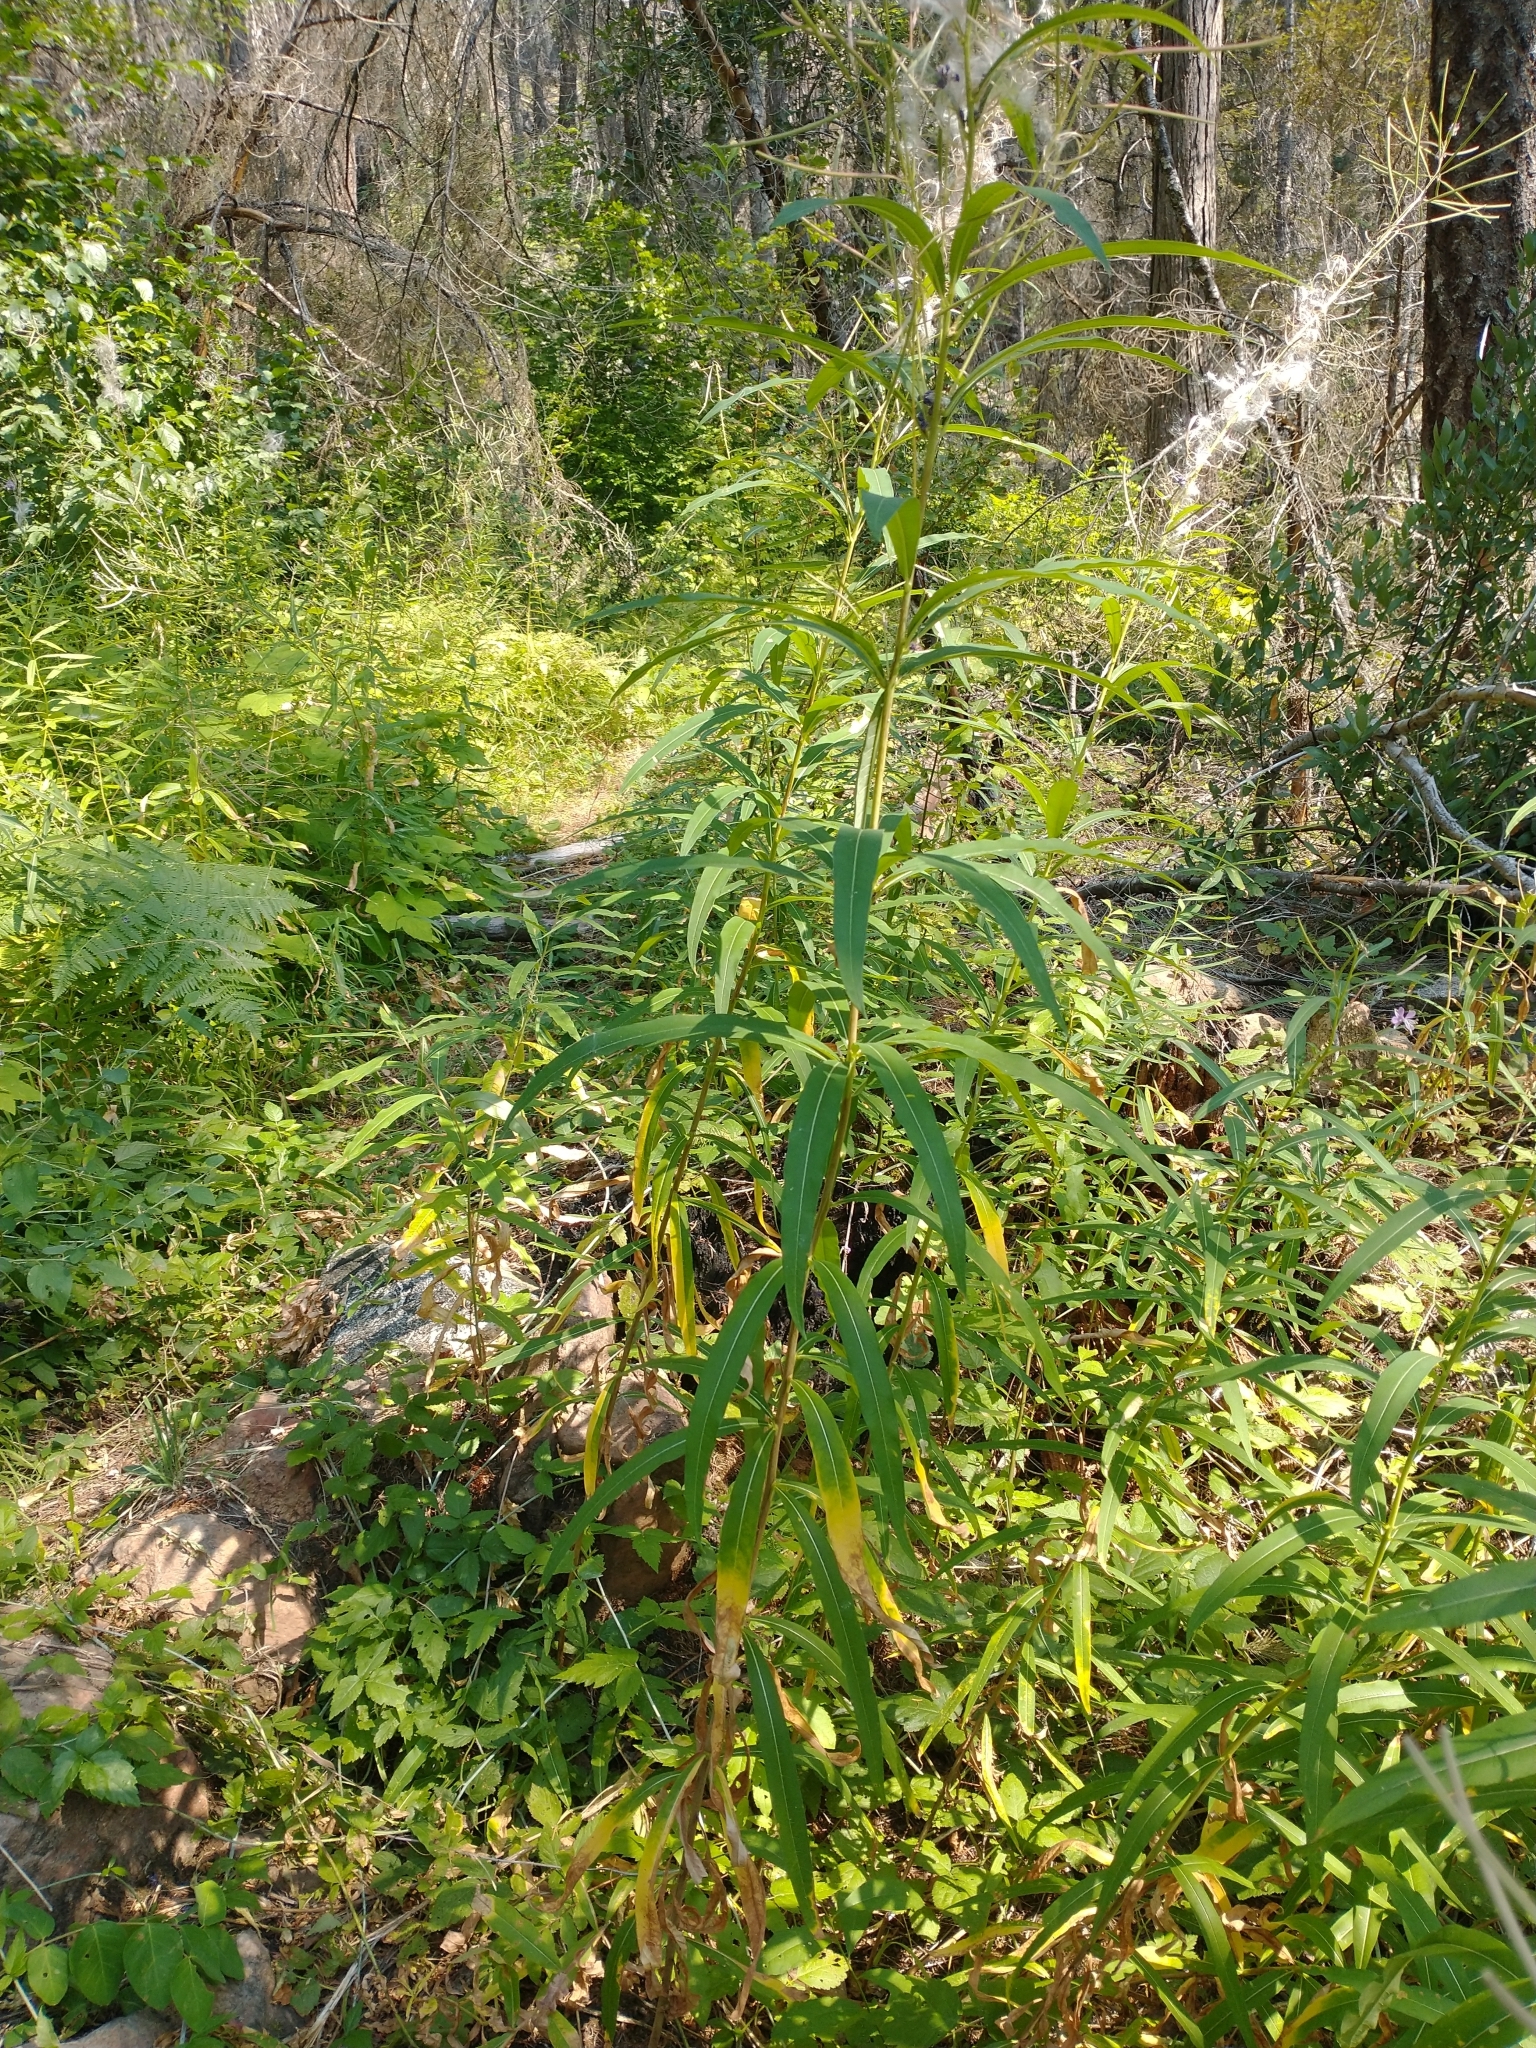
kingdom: Plantae
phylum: Tracheophyta
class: Magnoliopsida
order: Myrtales
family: Onagraceae
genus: Chamaenerion
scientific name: Chamaenerion angustifolium
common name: Fireweed
